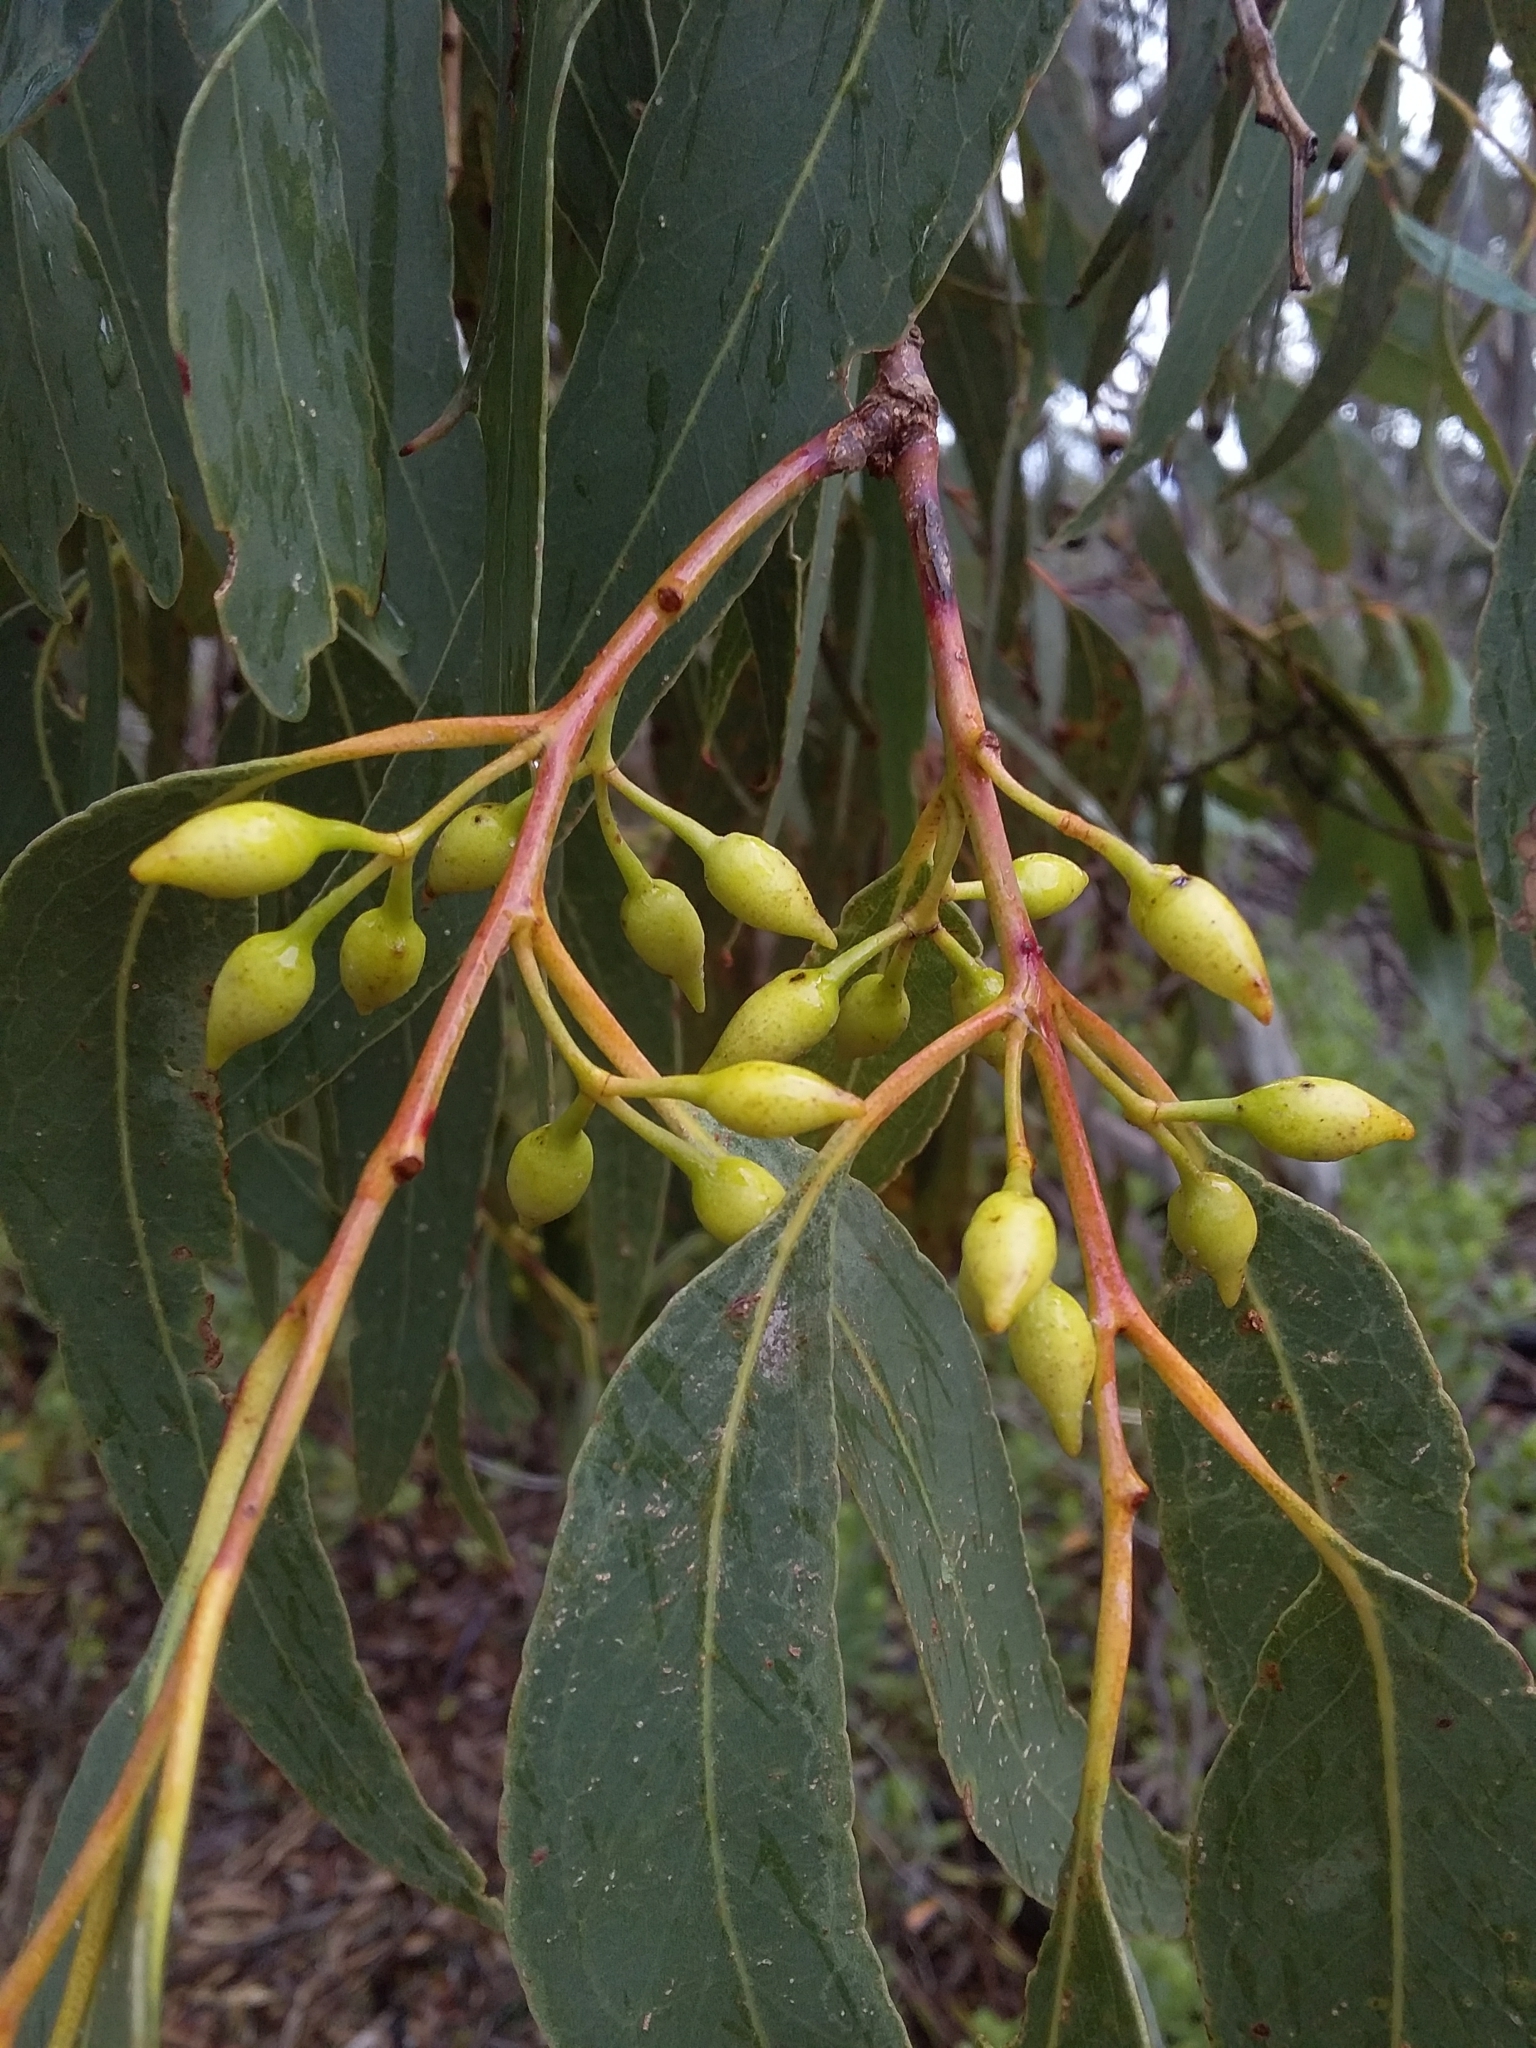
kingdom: Plantae
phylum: Tracheophyta
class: Magnoliopsida
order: Myrtales
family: Myrtaceae
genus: Eucalyptus
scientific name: Eucalyptus leucoxylon
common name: Blue gum
